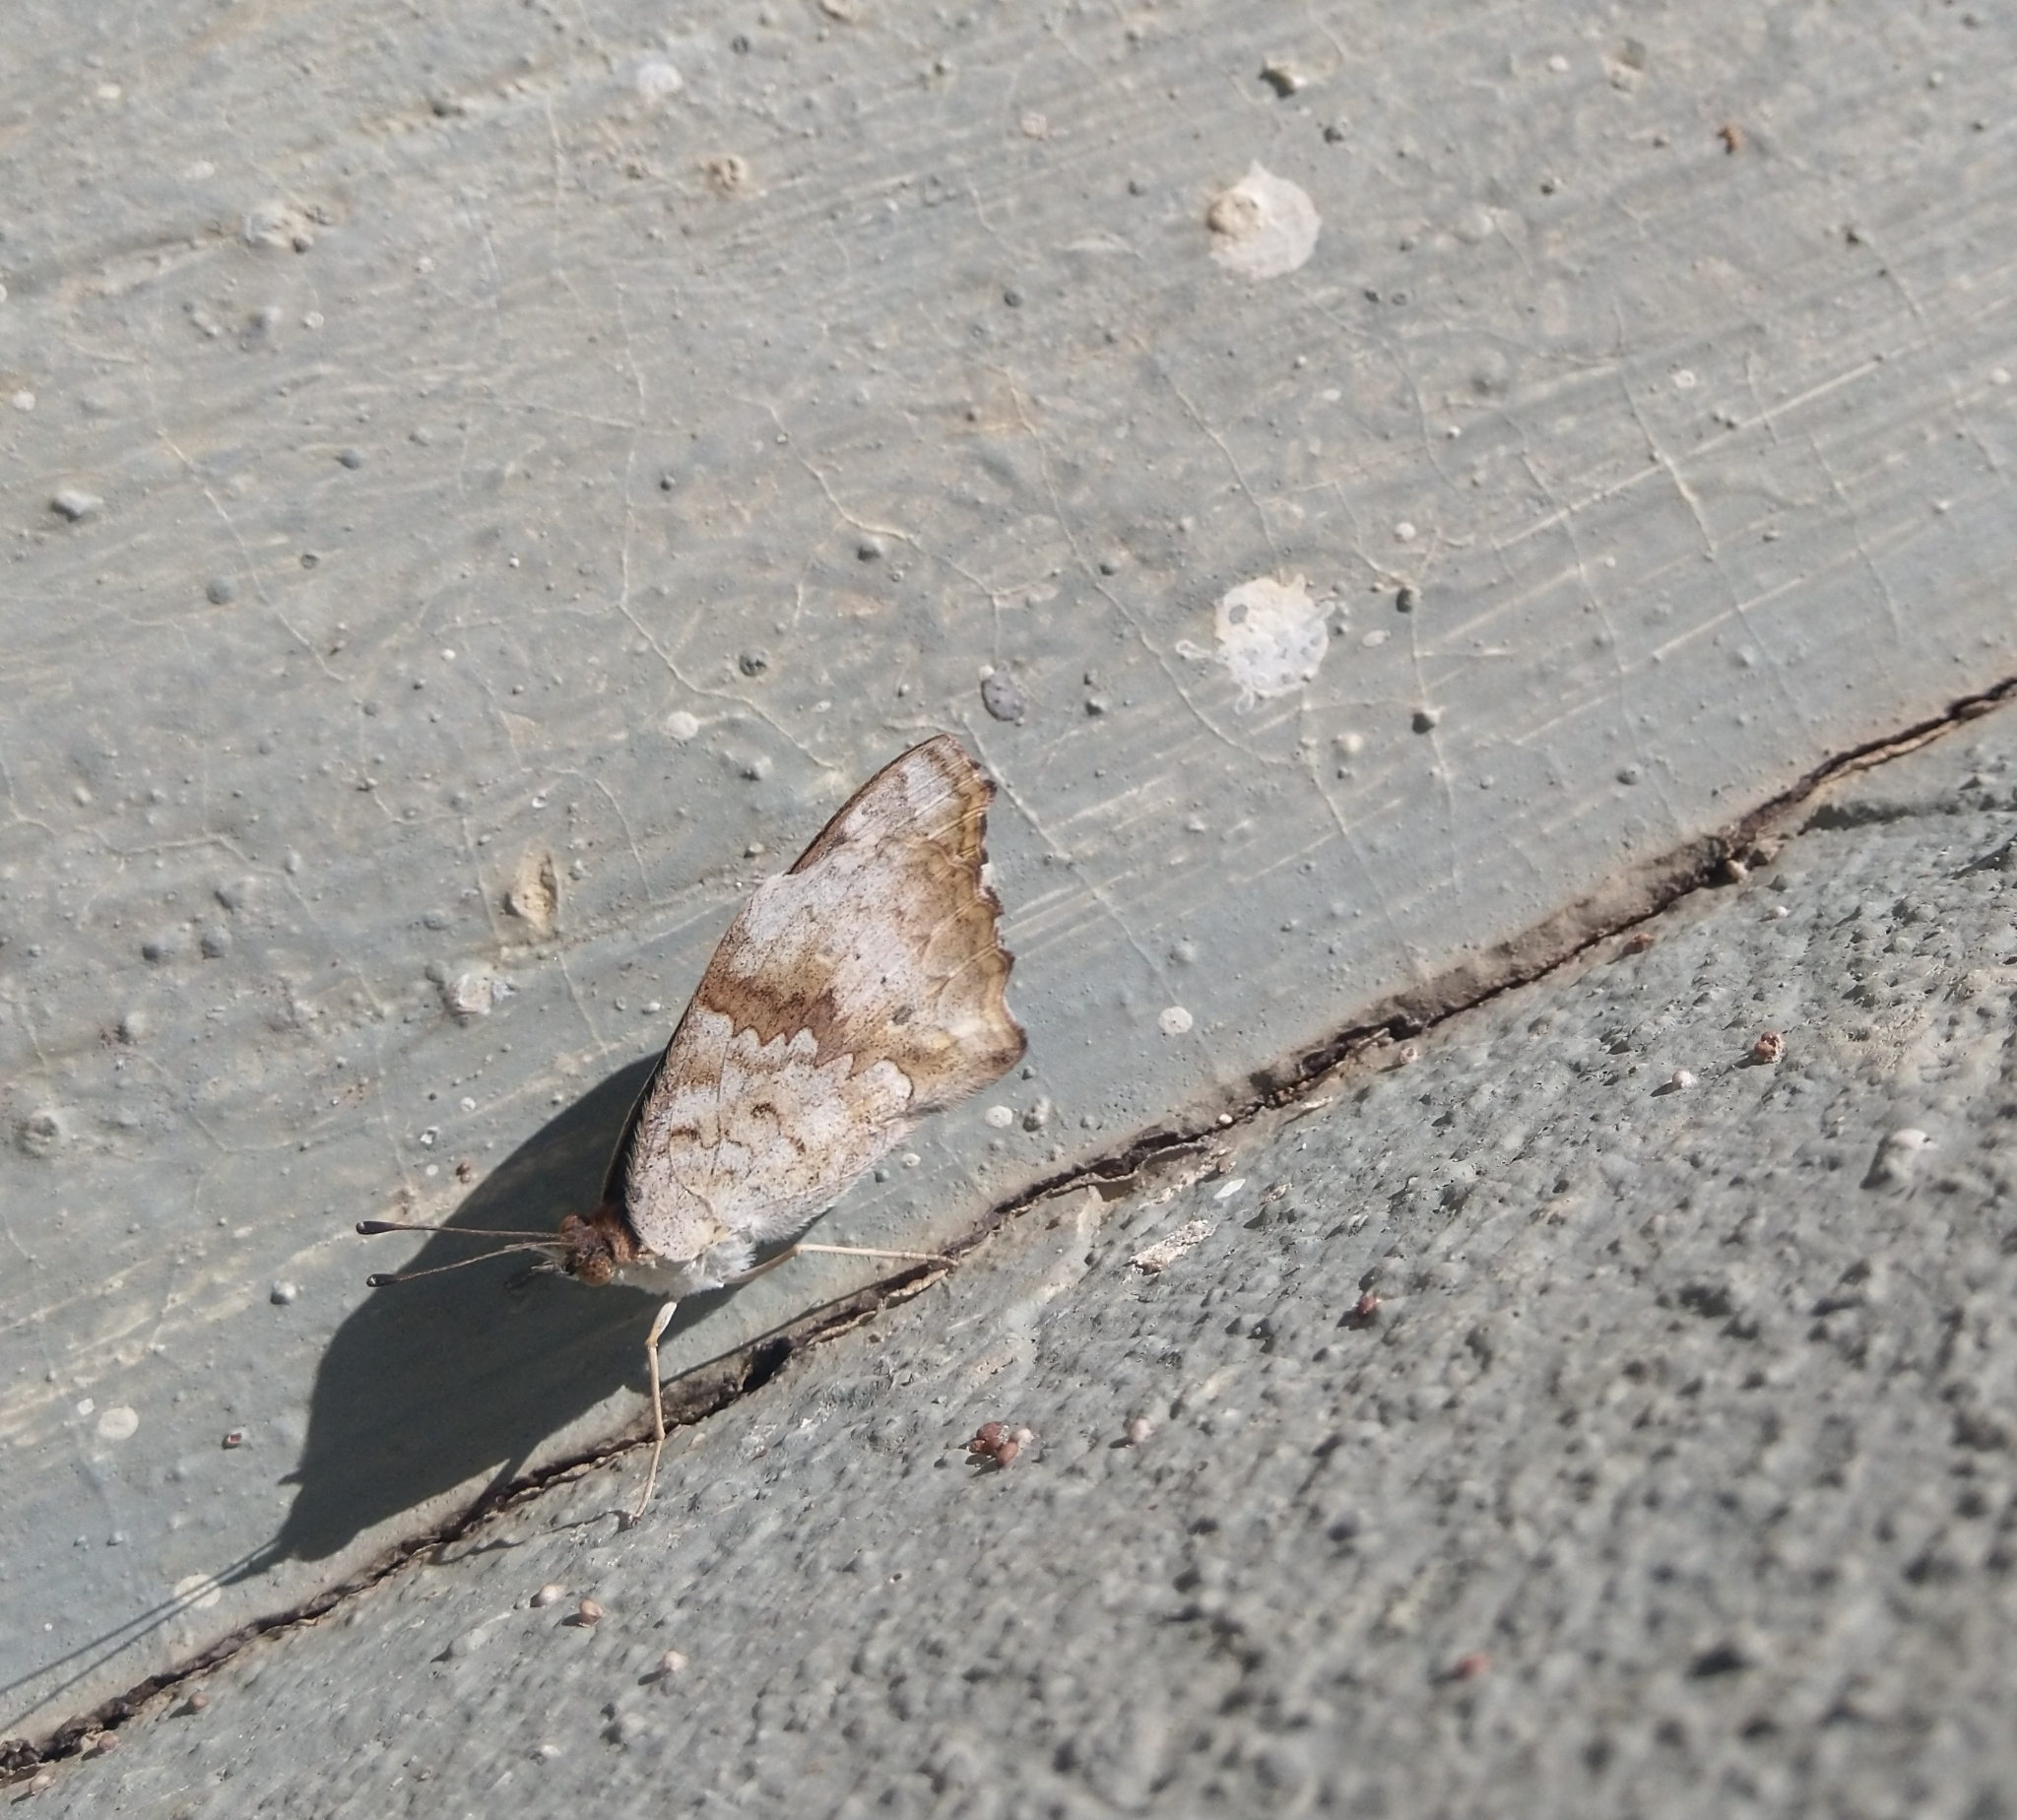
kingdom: Animalia
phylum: Arthropoda
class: Insecta
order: Lepidoptera
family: Nymphalidae
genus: Junonia
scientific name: Junonia lemonias
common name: Lemon pansy
